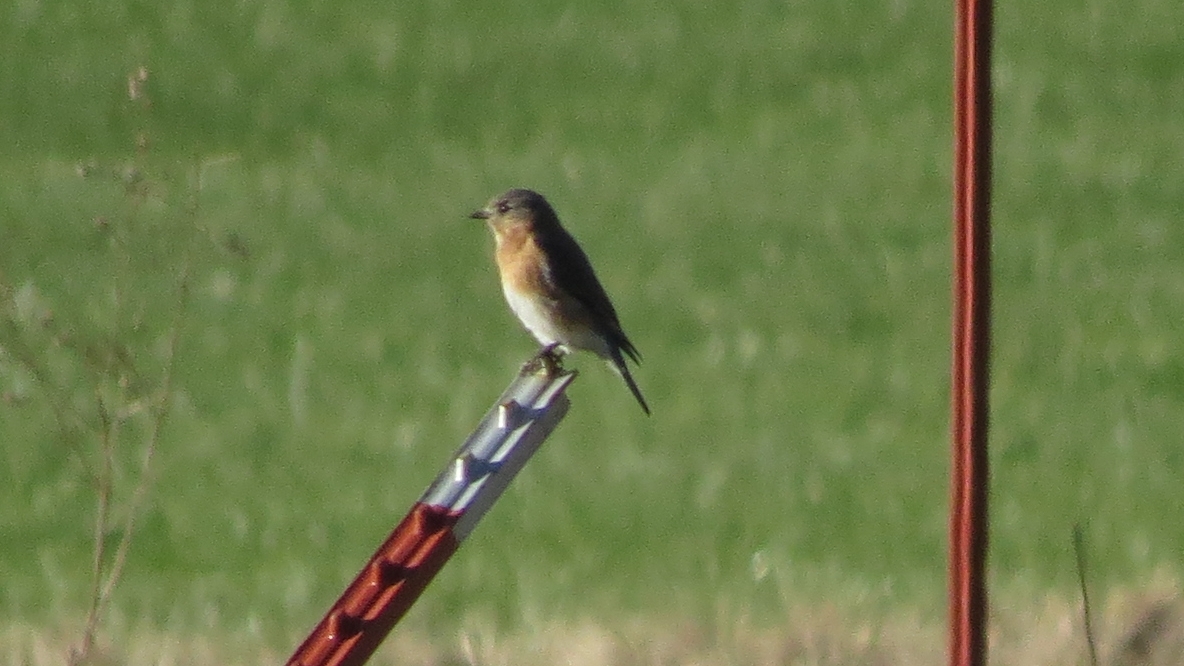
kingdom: Animalia
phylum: Chordata
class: Aves
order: Passeriformes
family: Turdidae
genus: Sialia
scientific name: Sialia sialis
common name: Eastern bluebird
